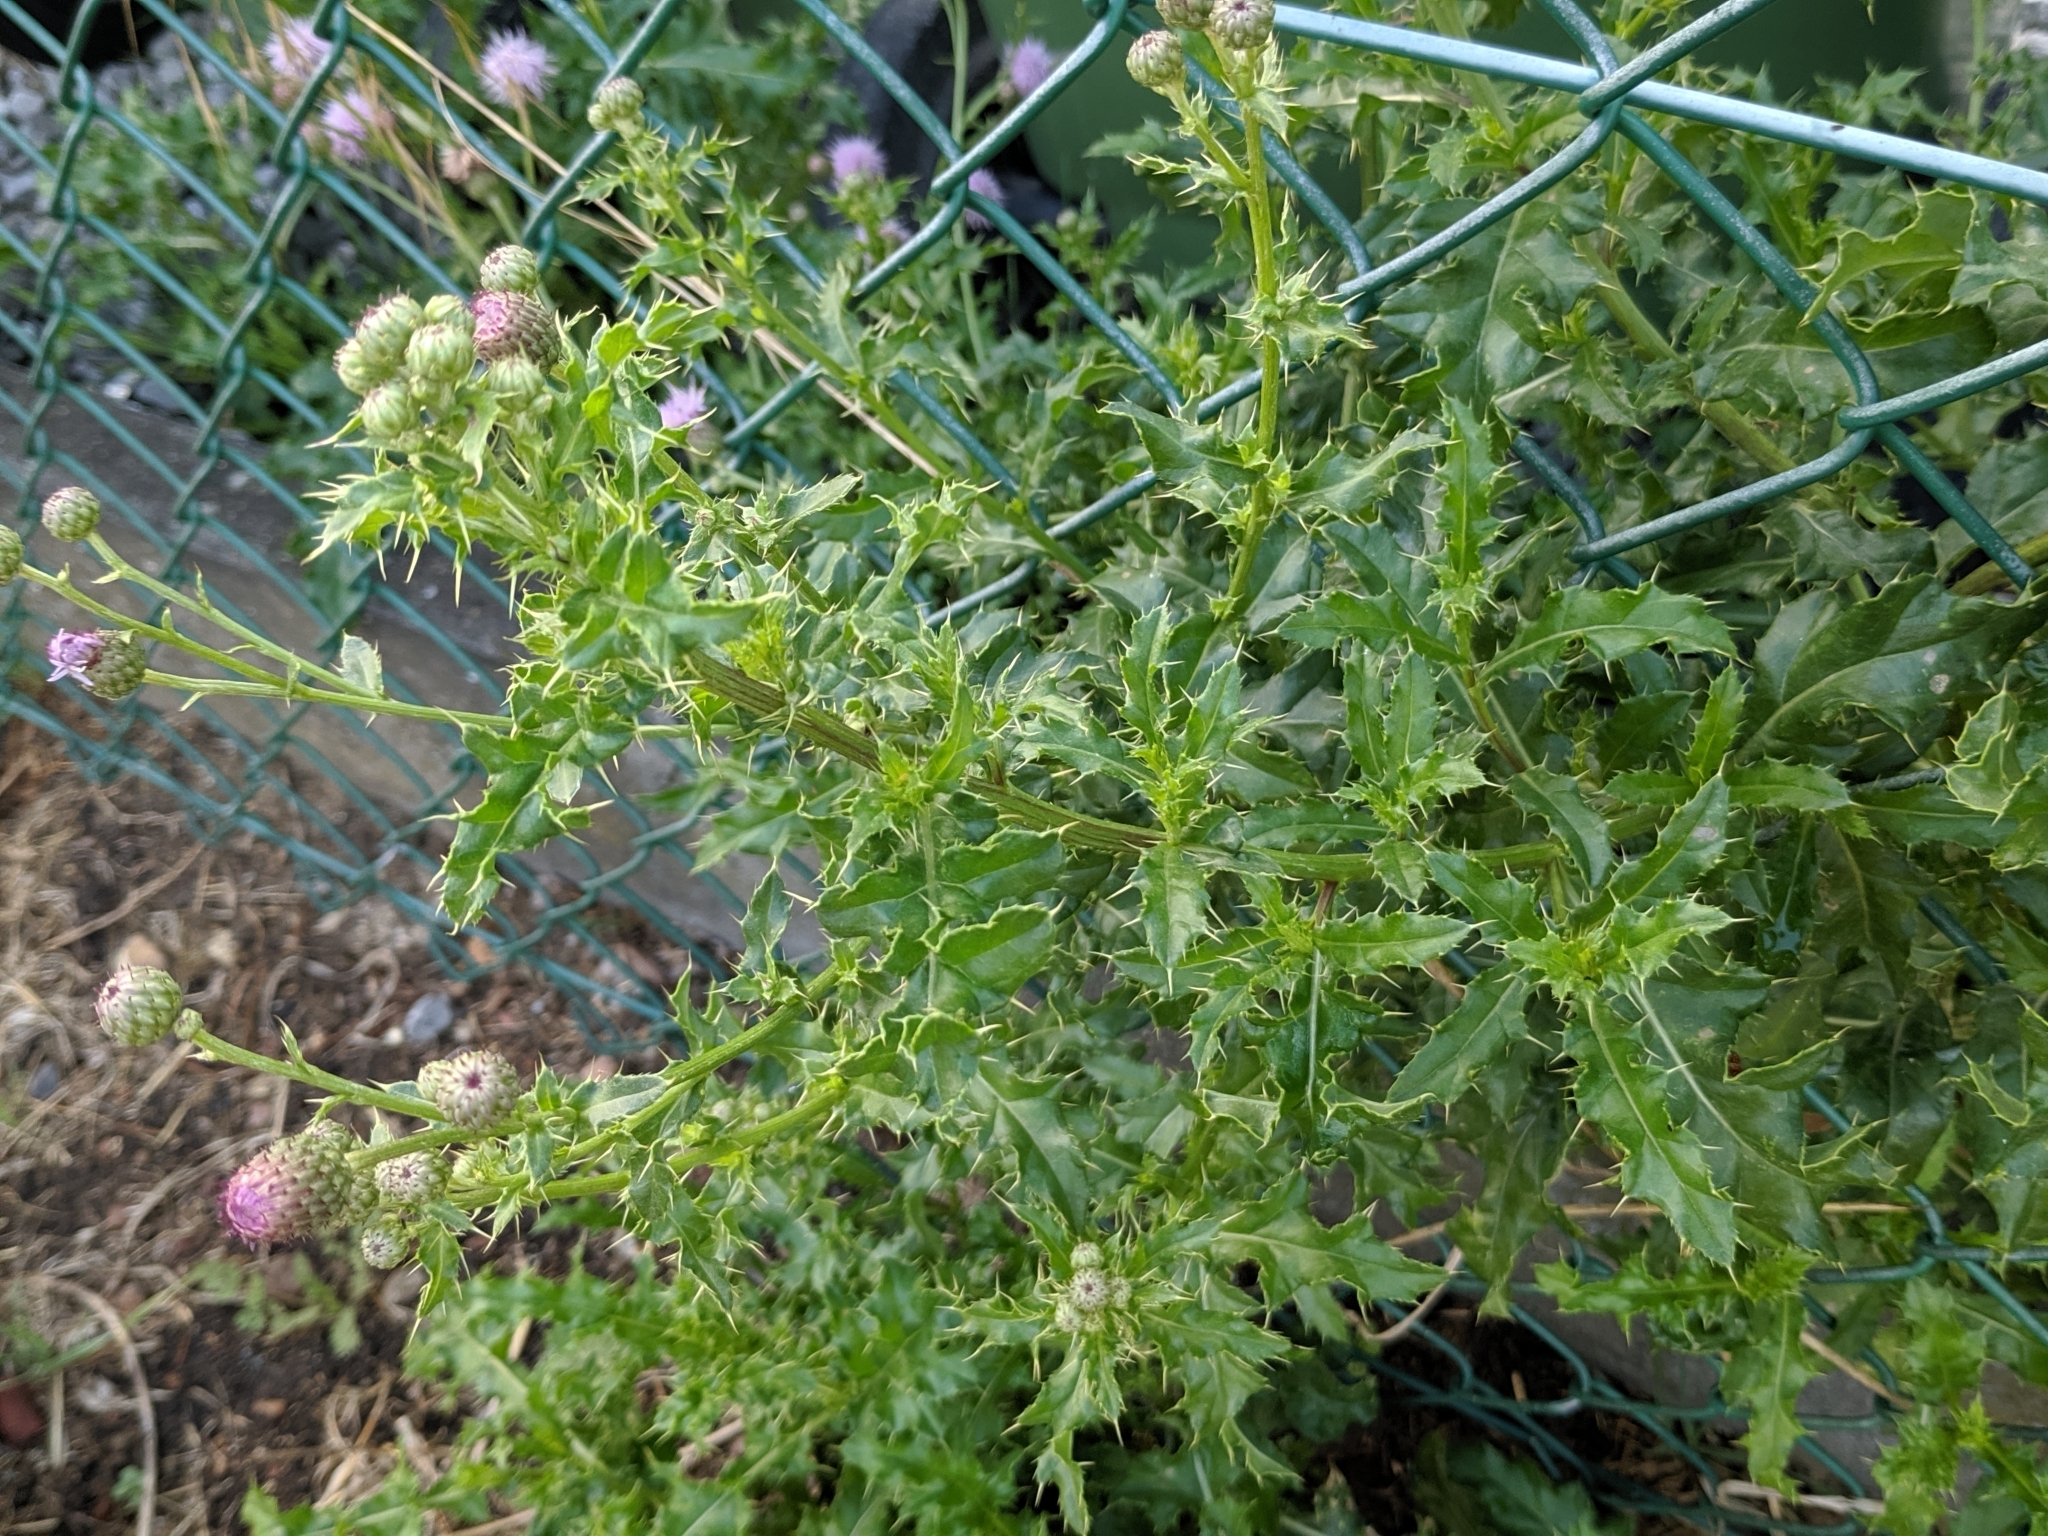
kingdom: Plantae
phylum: Tracheophyta
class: Magnoliopsida
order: Asterales
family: Asteraceae
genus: Cirsium
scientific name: Cirsium arvense
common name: Creeping thistle
